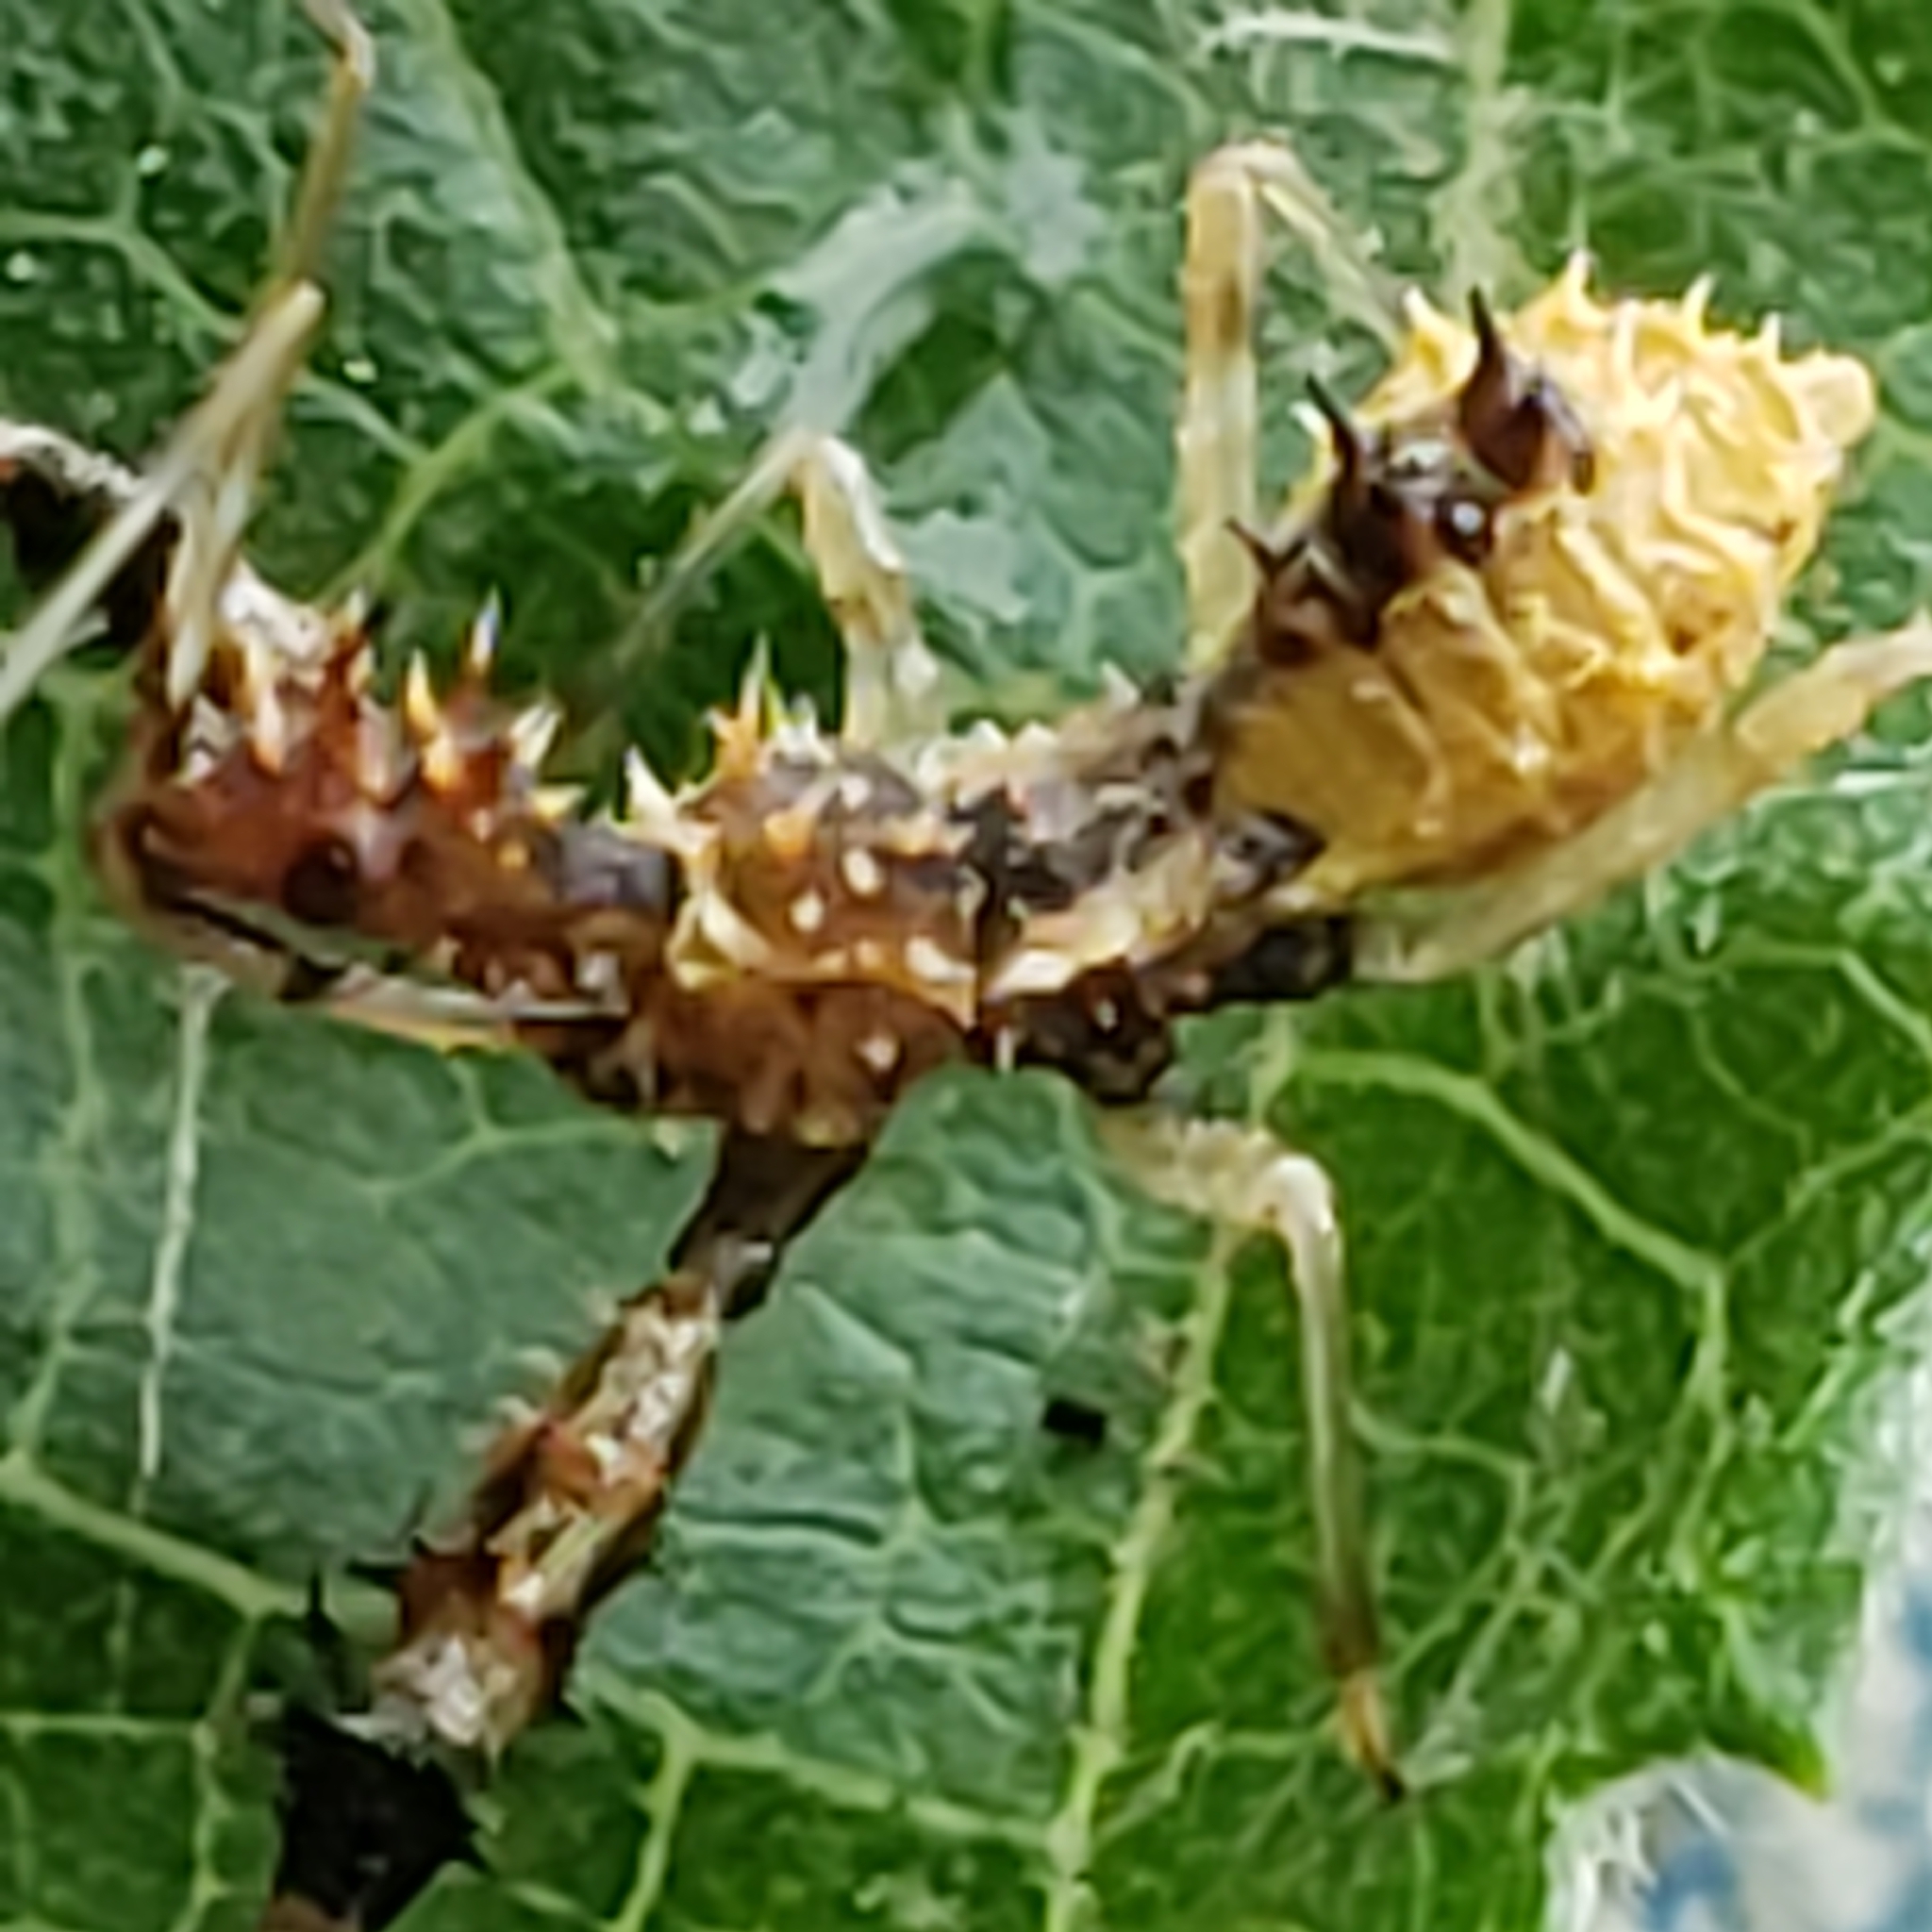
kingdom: Animalia
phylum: Arthropoda
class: Insecta
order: Hemiptera
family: Reduviidae
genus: Sinea
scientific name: Sinea spinipes
